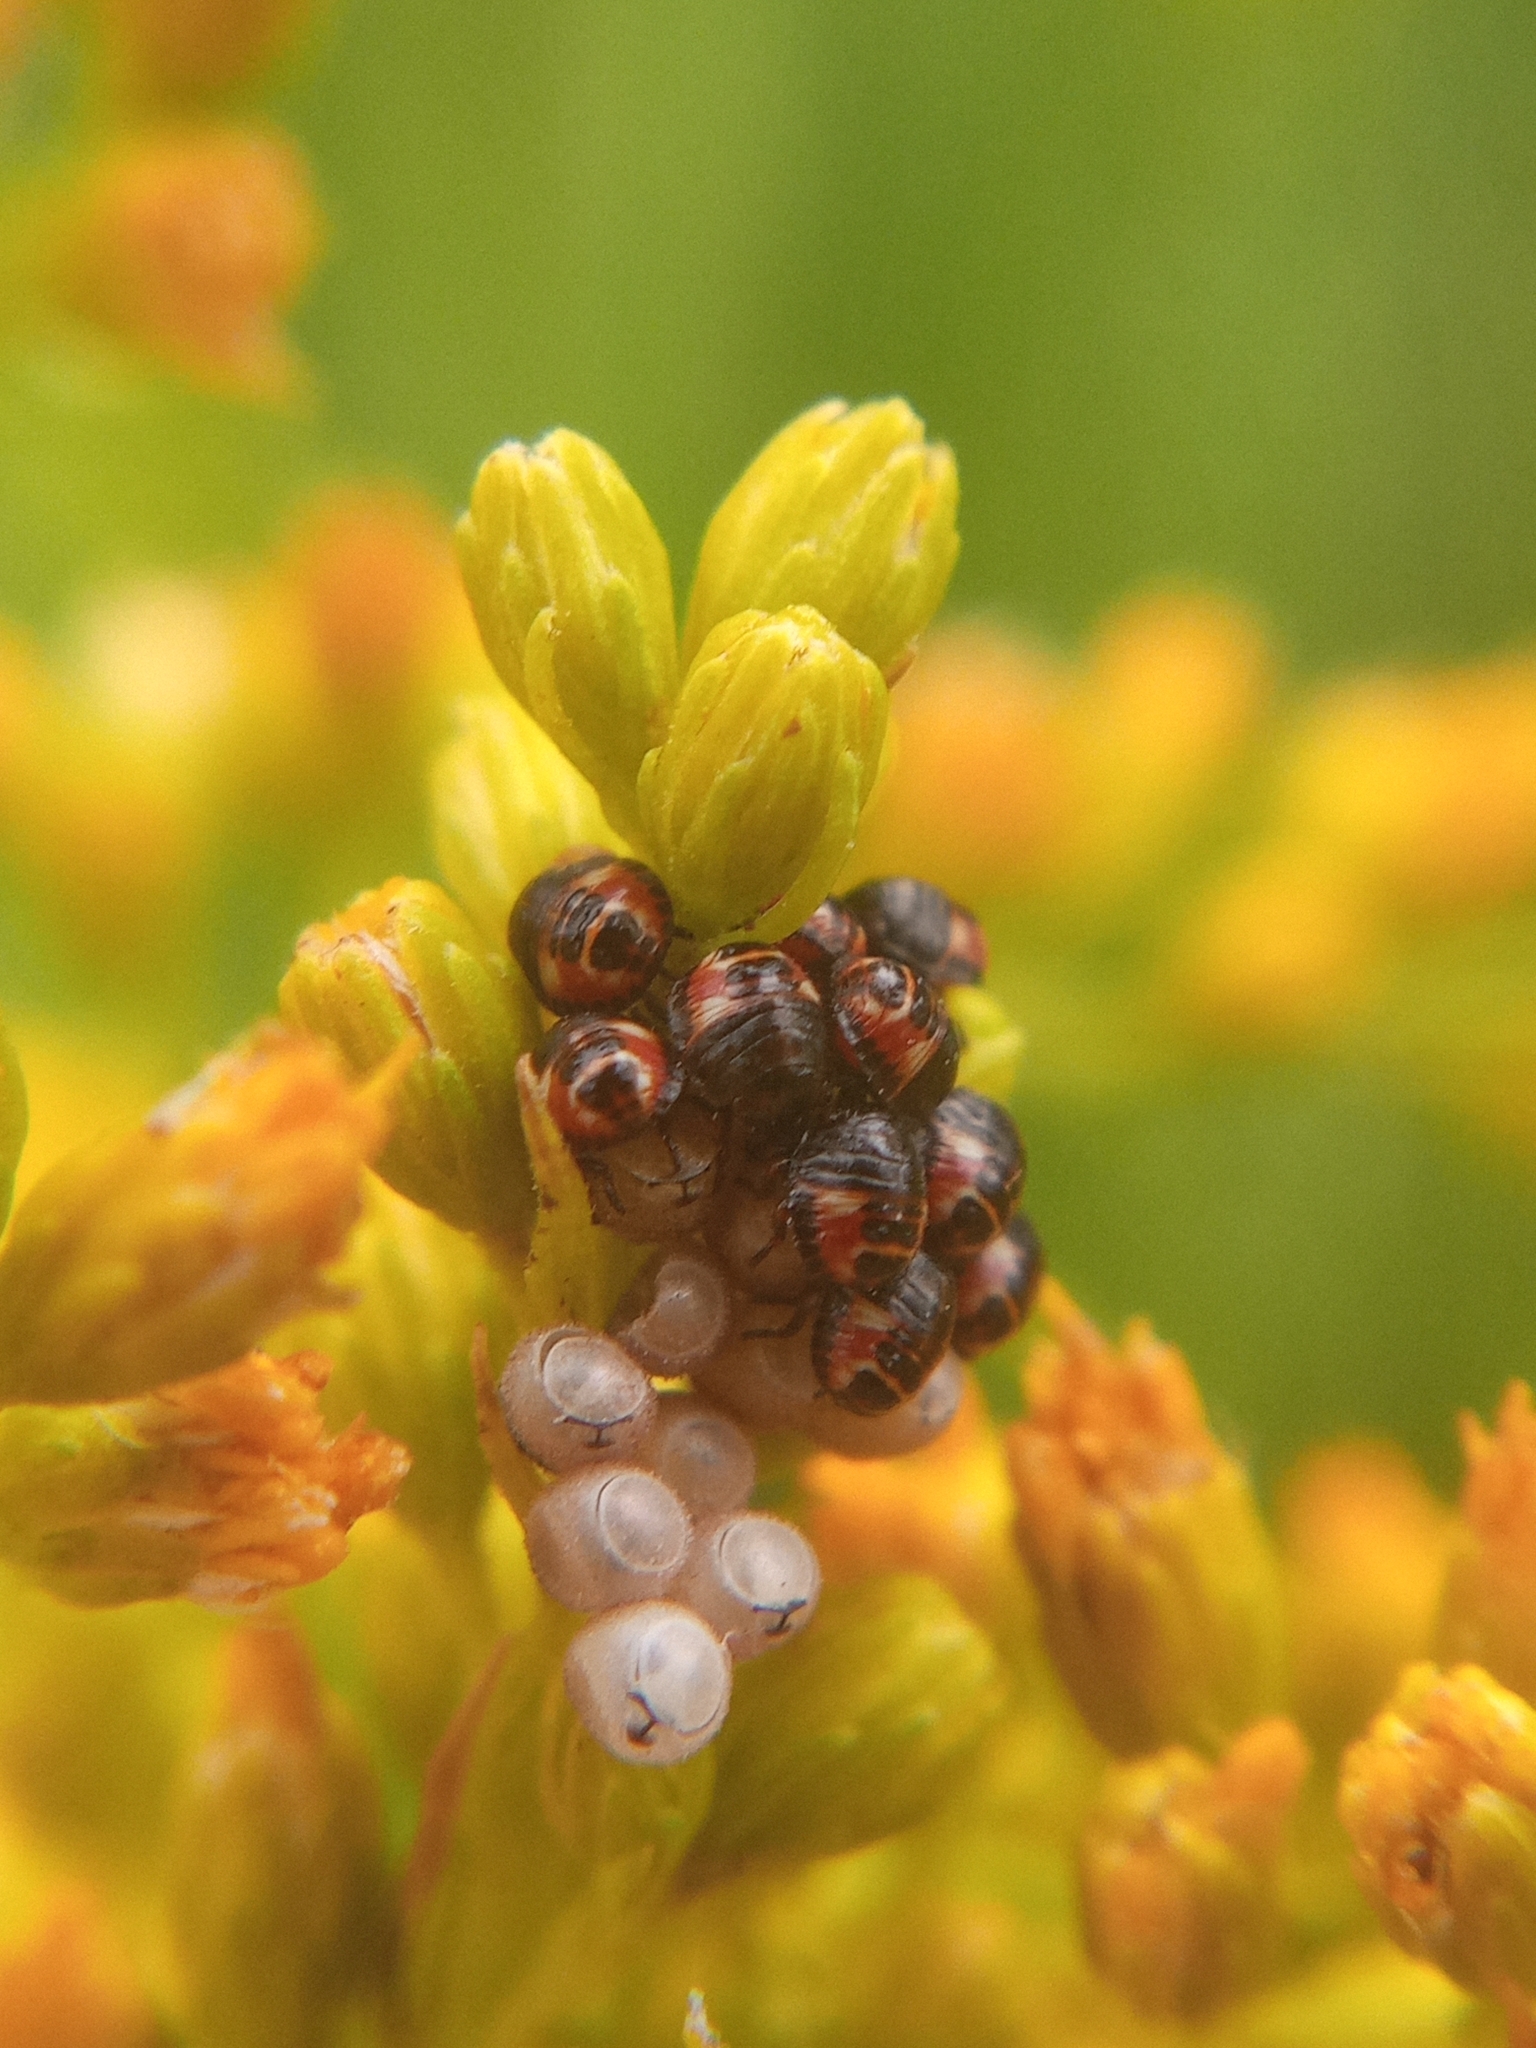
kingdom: Animalia
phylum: Arthropoda
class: Insecta
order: Hemiptera
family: Pentatomidae
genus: Carpocoris
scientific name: Carpocoris
